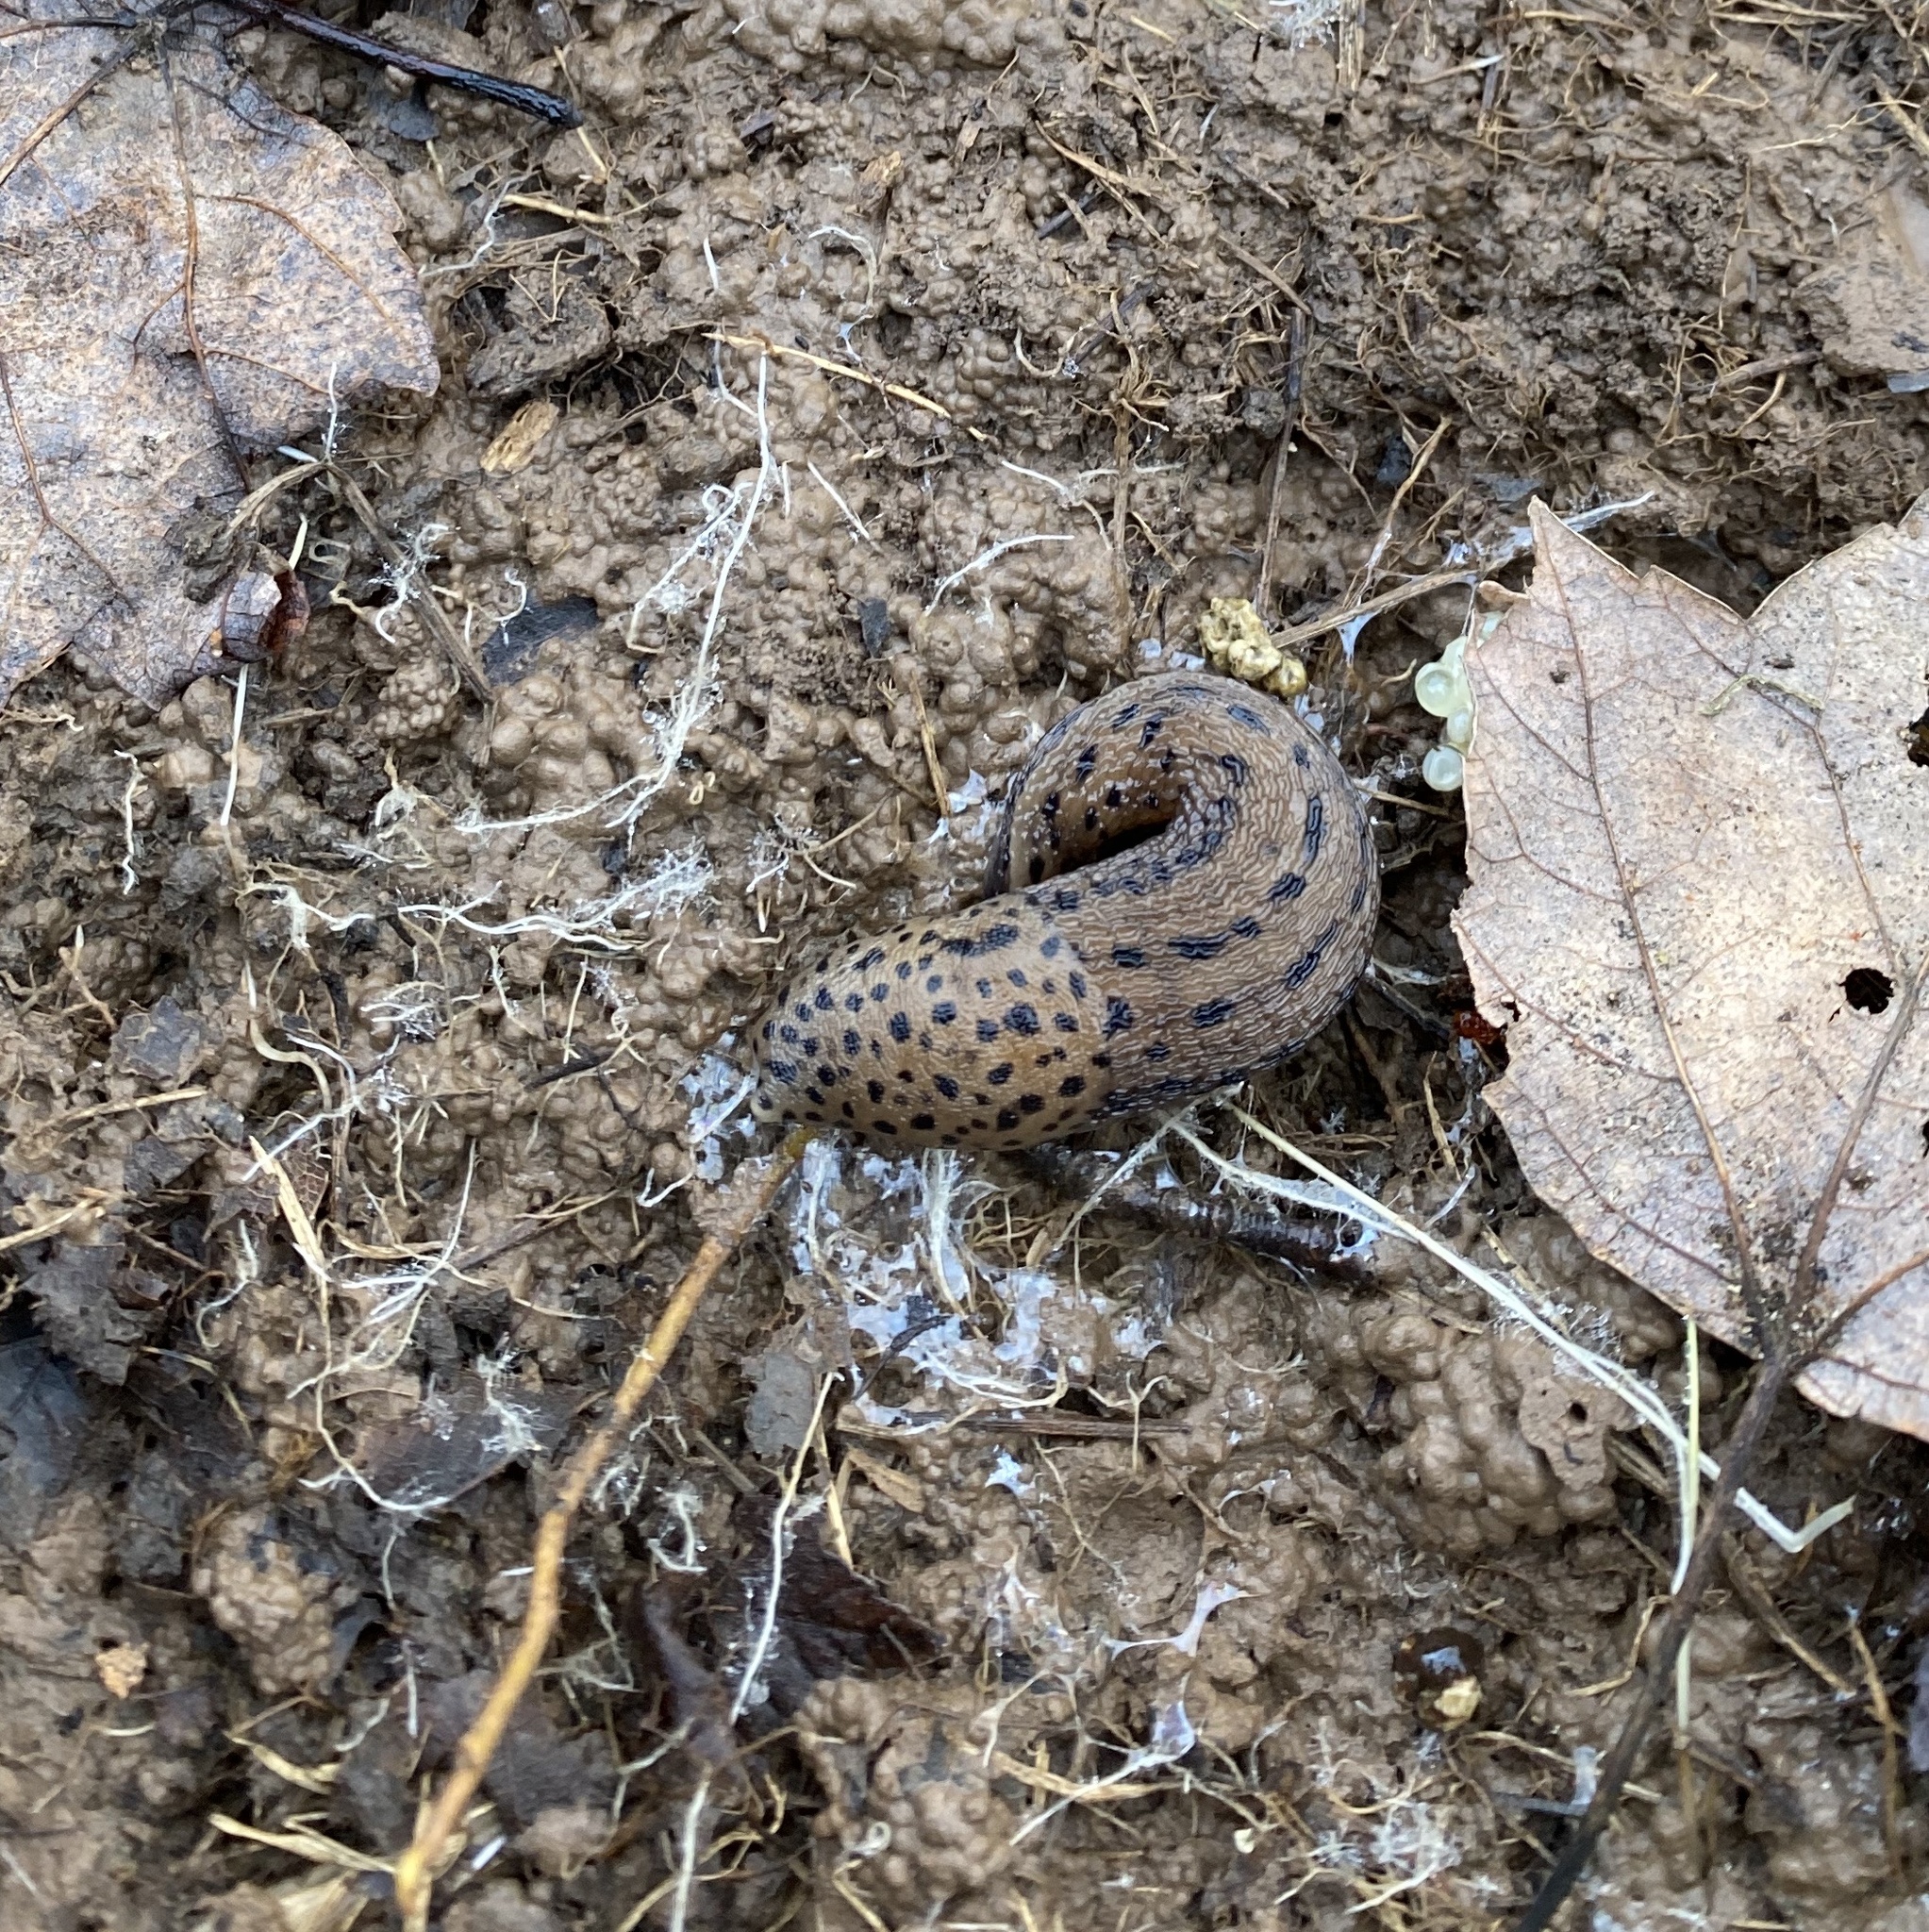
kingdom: Animalia
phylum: Mollusca
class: Gastropoda
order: Stylommatophora
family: Limacidae
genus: Limax
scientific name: Limax maximus
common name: Great grey slug
